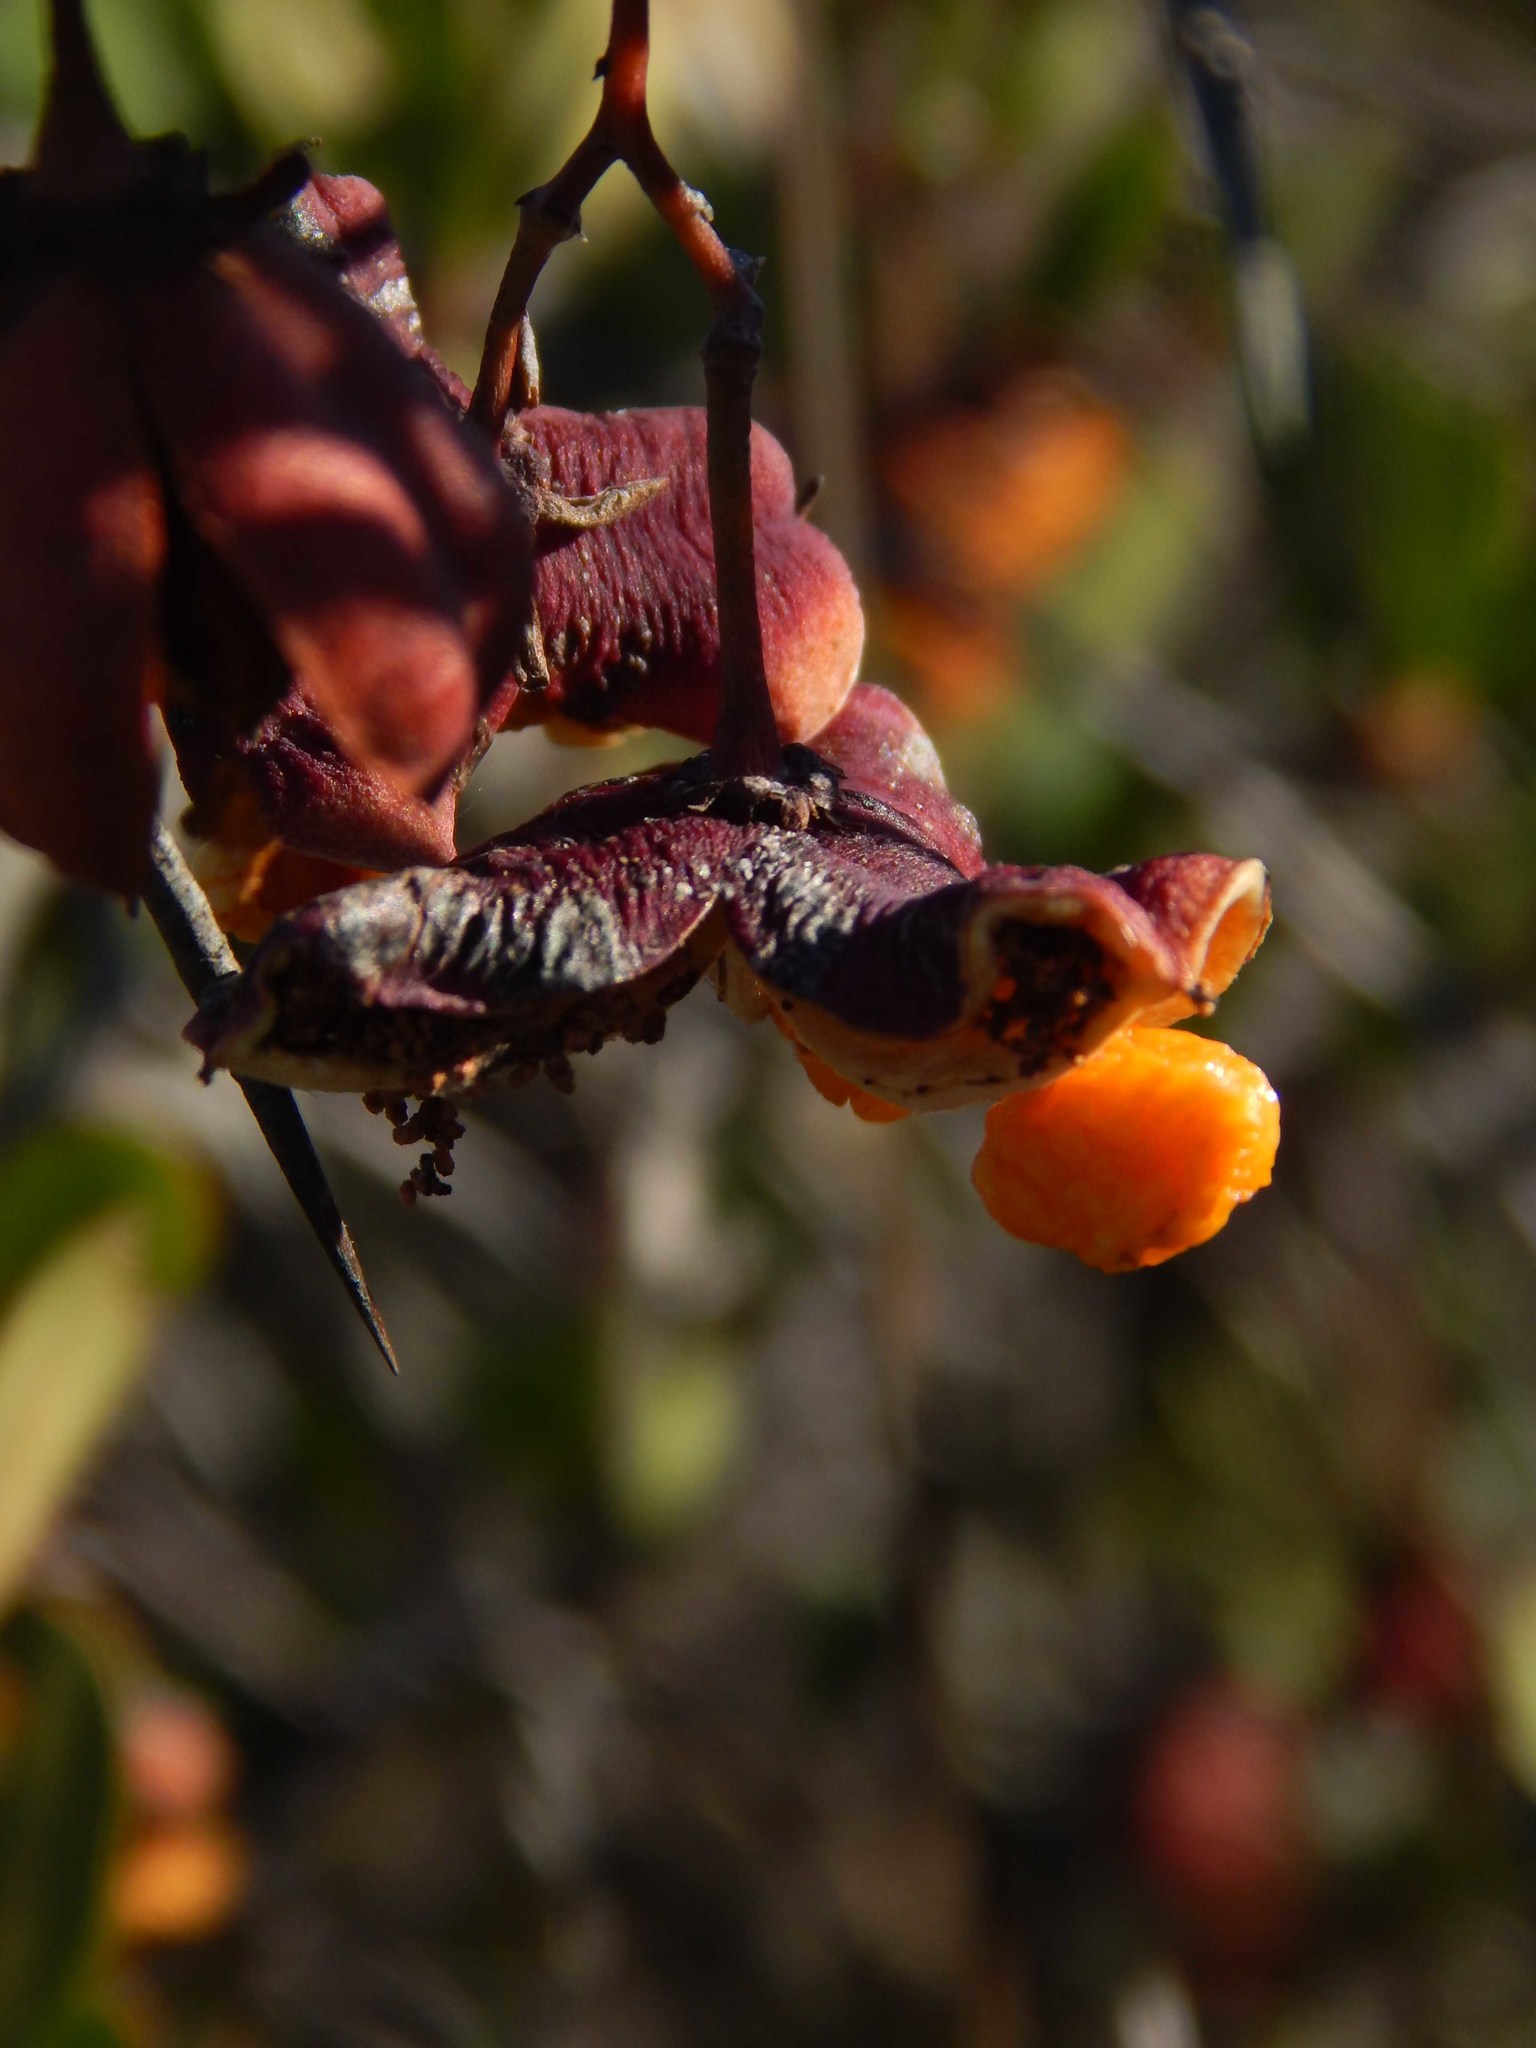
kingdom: Plantae
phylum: Tracheophyta
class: Magnoliopsida
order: Celastrales
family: Celastraceae
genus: Putterlickia
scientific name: Putterlickia pyracantha
